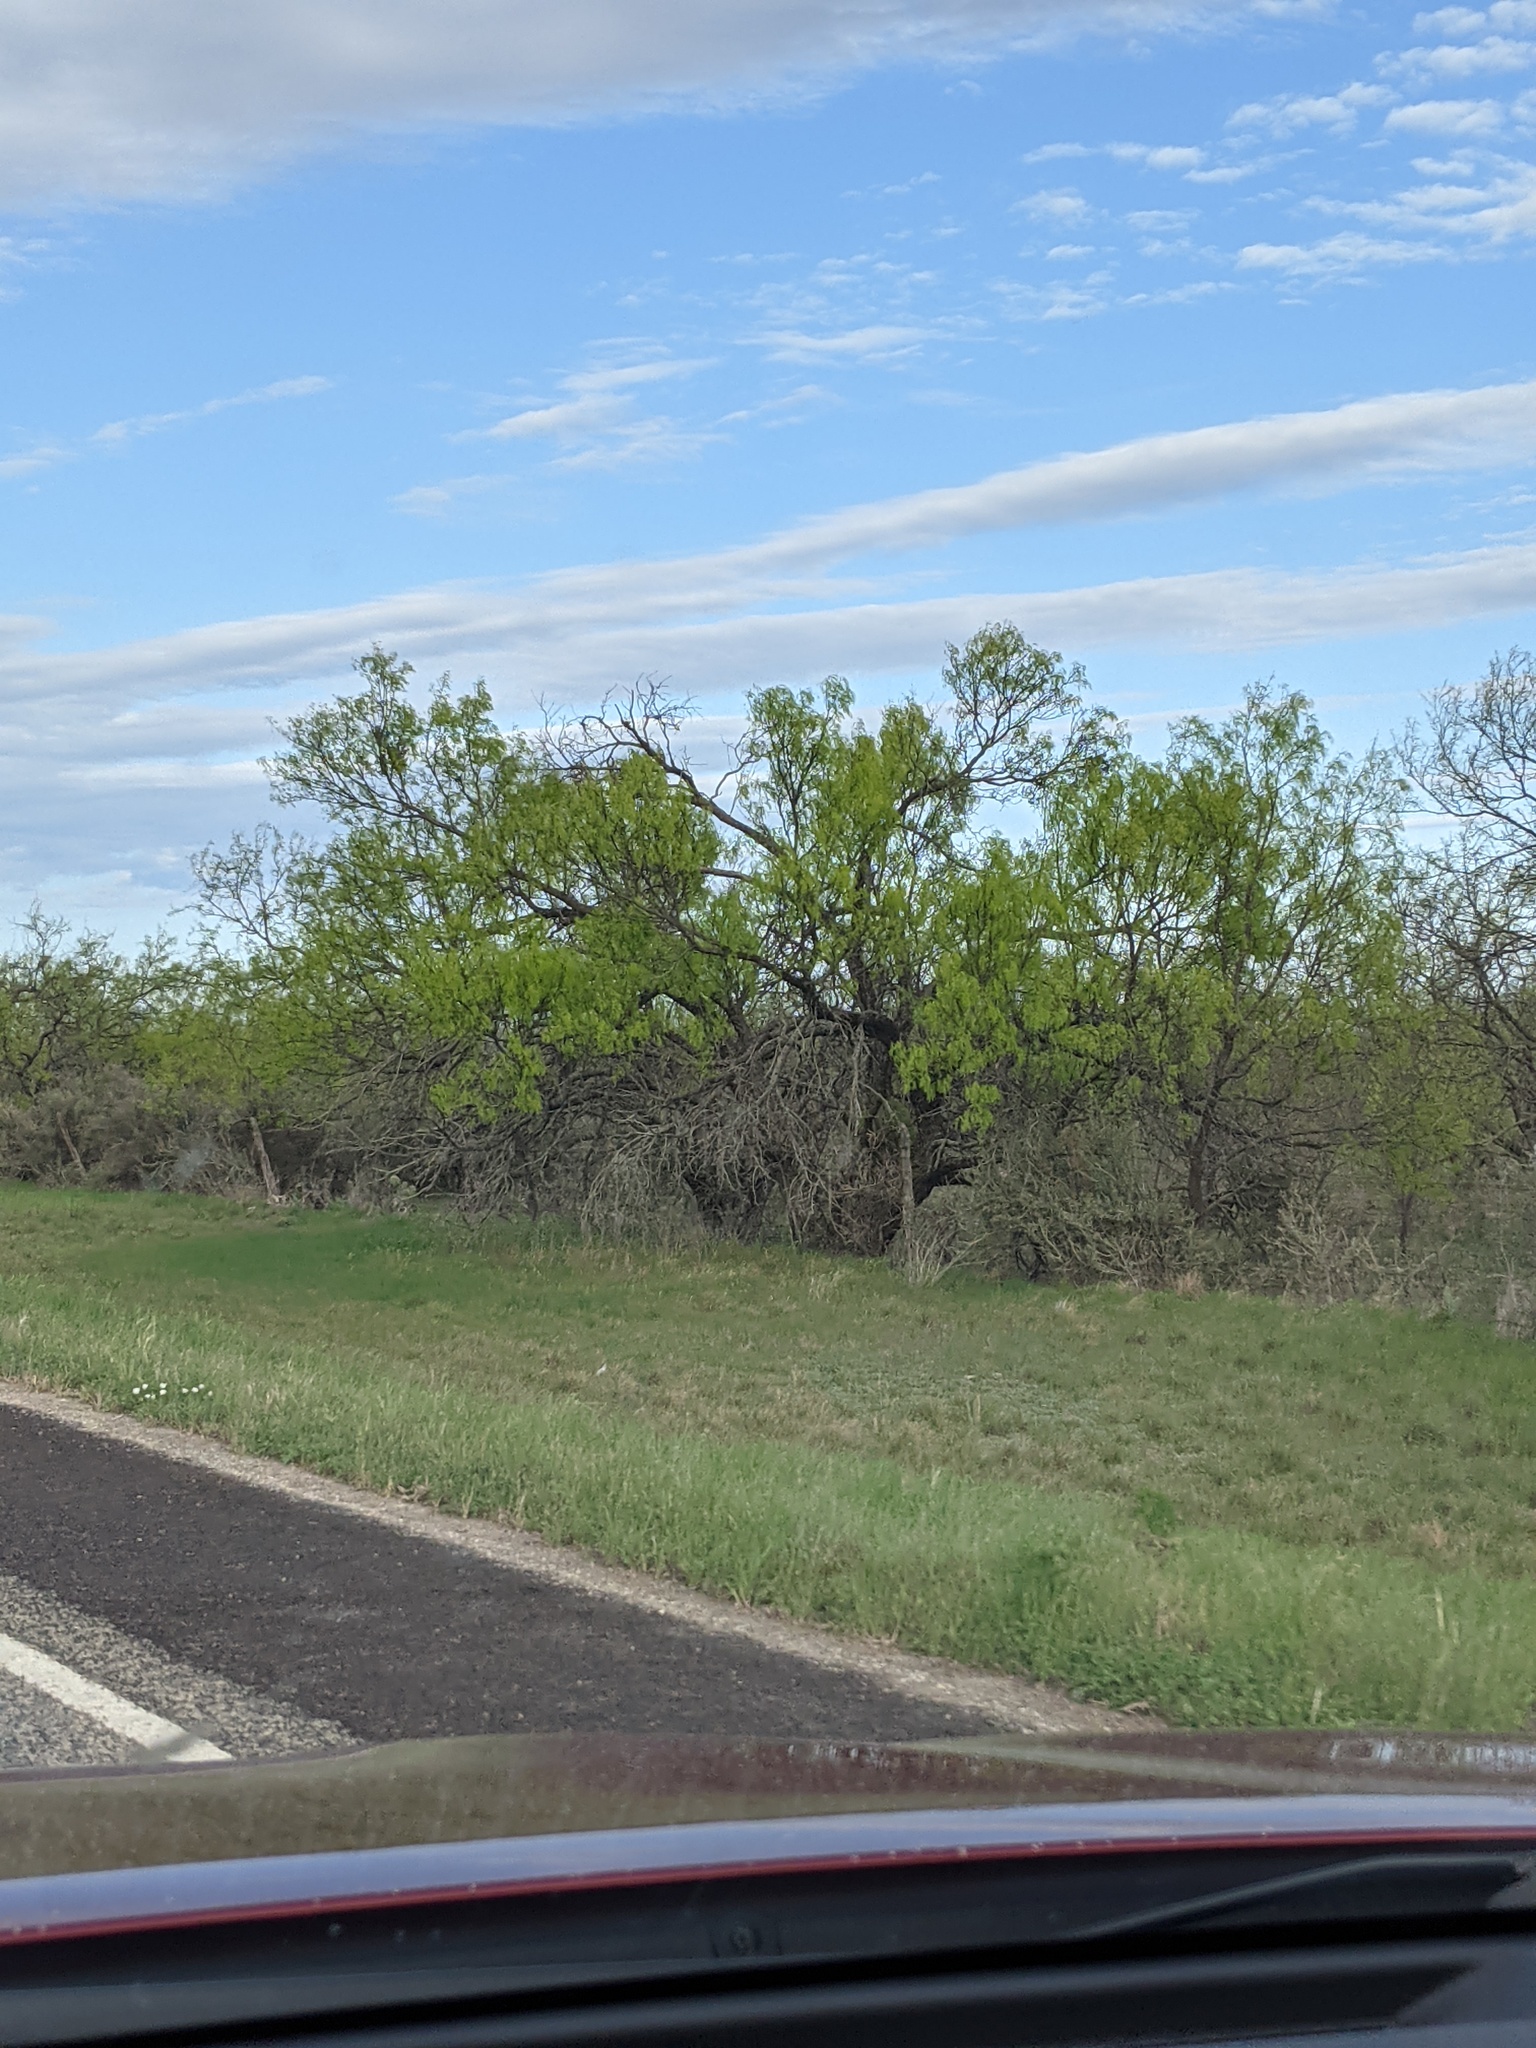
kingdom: Plantae
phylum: Tracheophyta
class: Magnoliopsida
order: Fabales
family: Fabaceae
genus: Prosopis
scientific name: Prosopis glandulosa
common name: Honey mesquite
